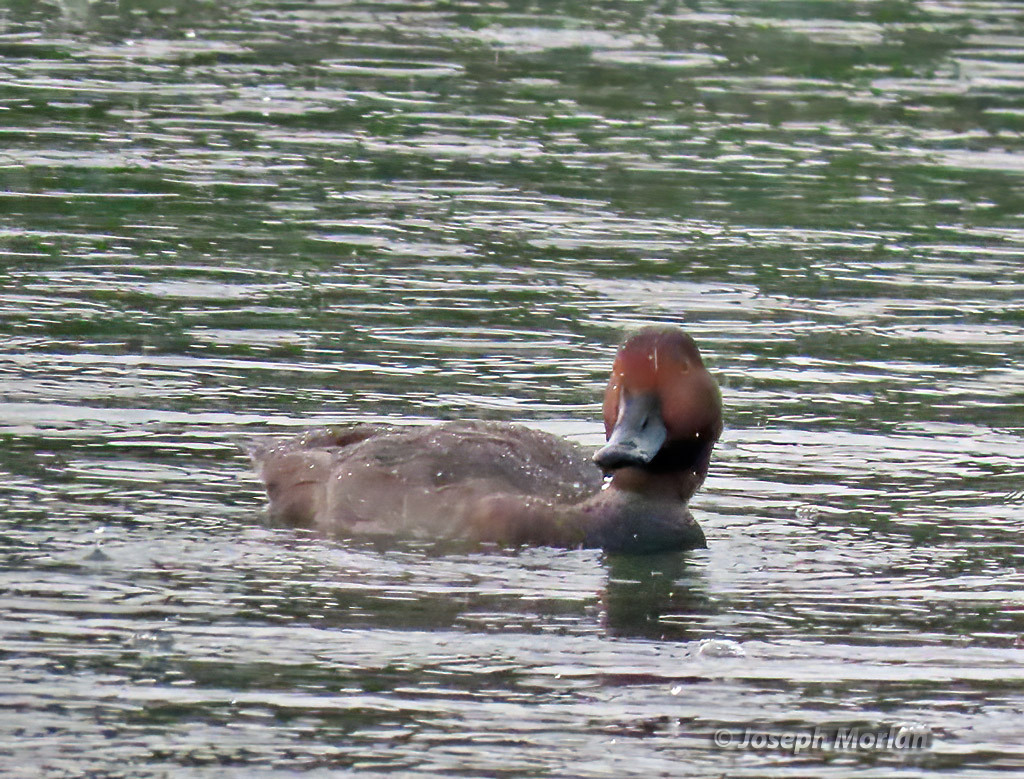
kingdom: Animalia
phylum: Chordata
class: Aves
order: Anseriformes
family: Anatidae
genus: Aythya
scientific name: Aythya americana
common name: Redhead
